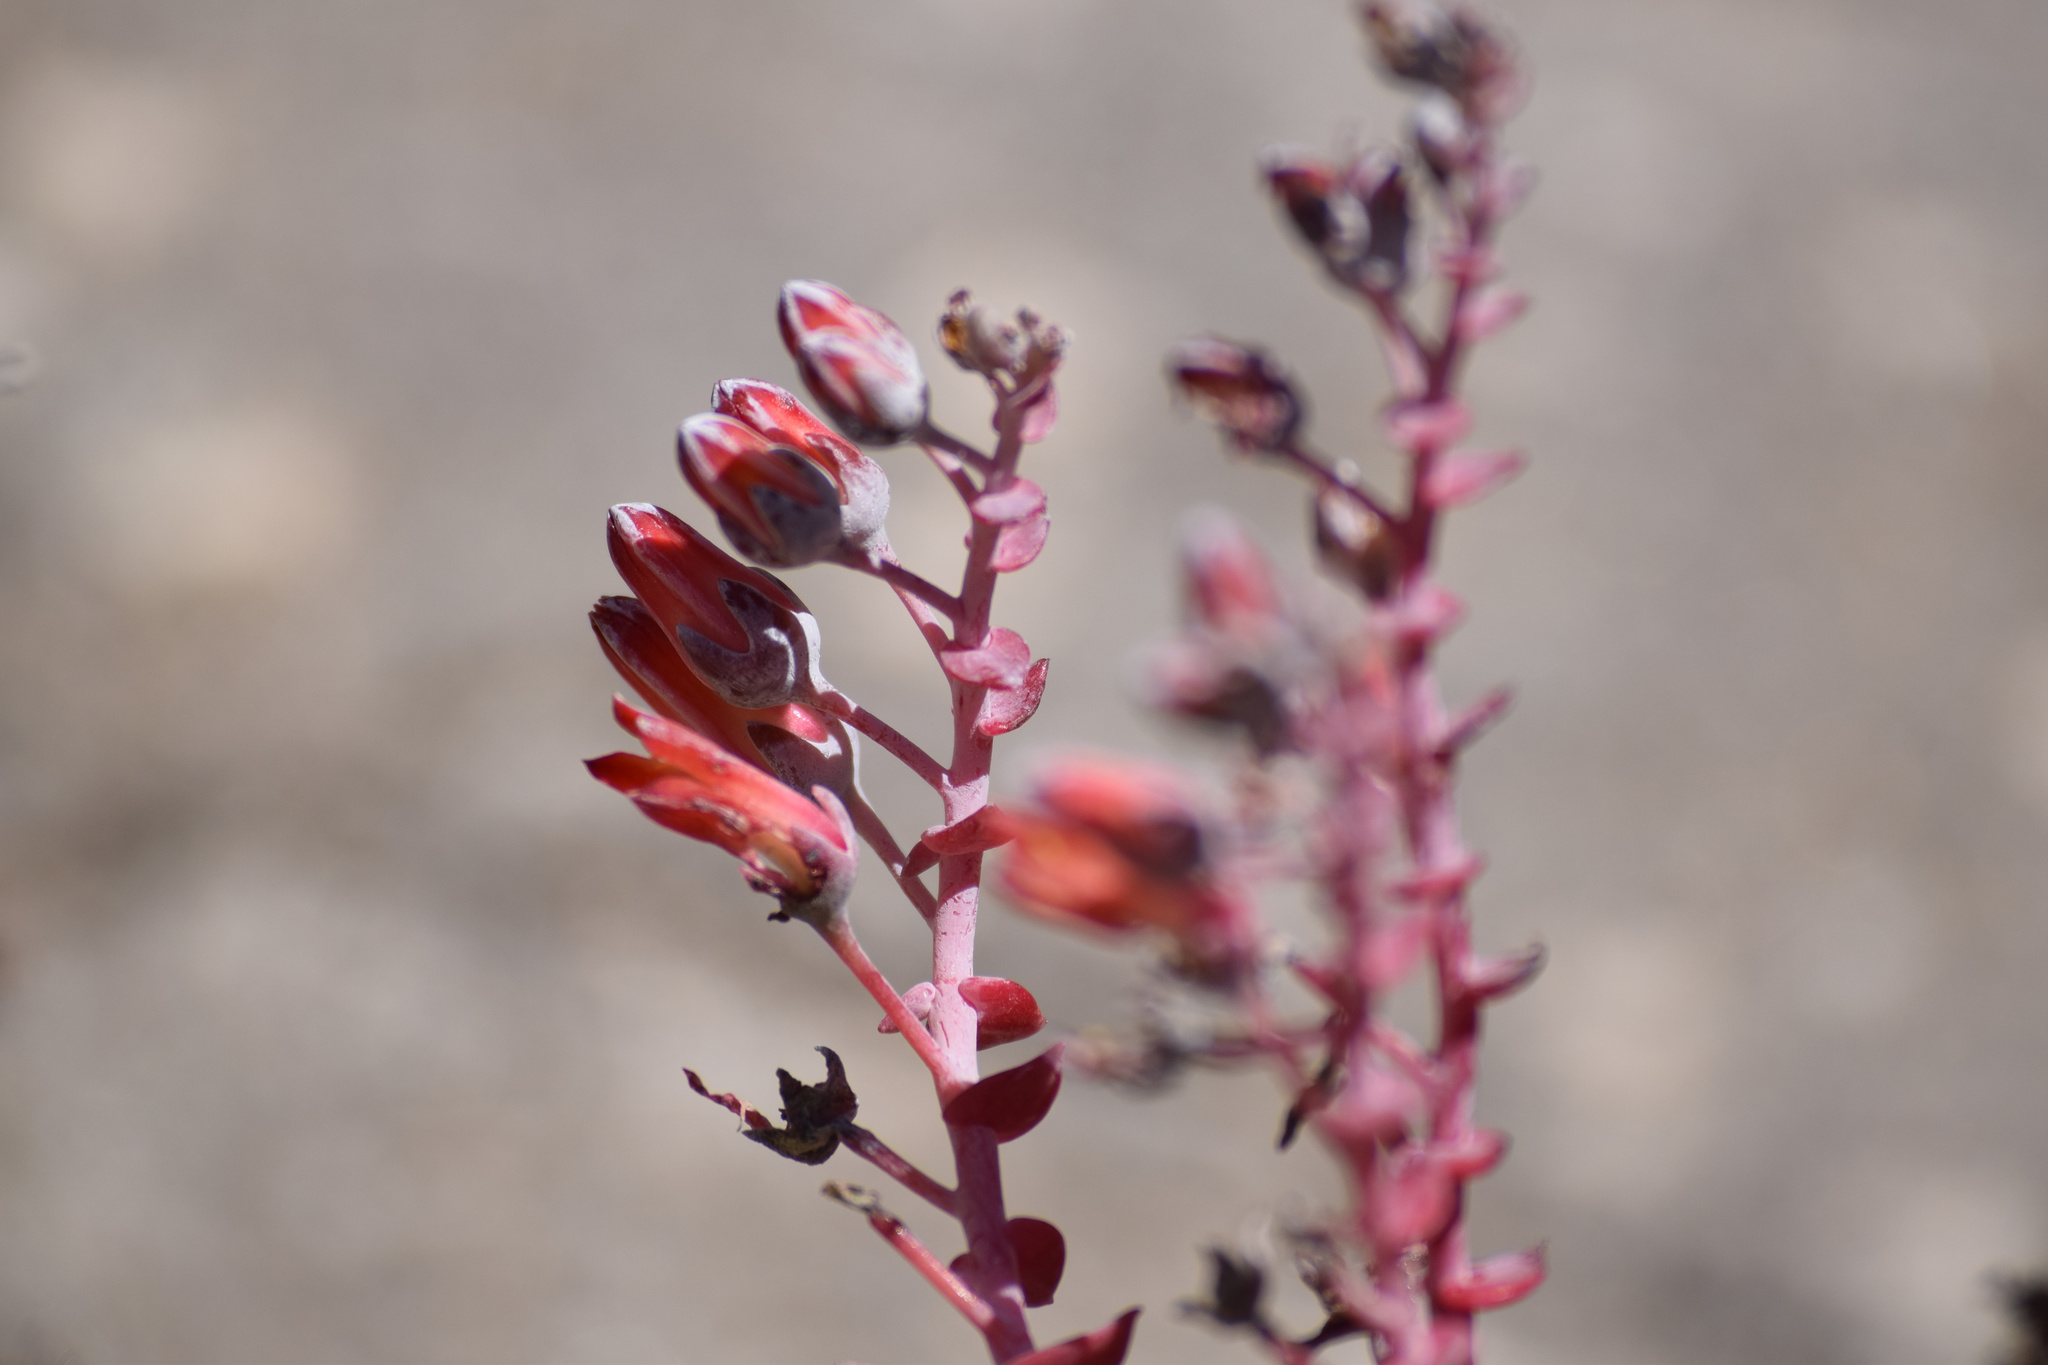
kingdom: Plantae
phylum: Tracheophyta
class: Magnoliopsida
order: Saxifragales
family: Crassulaceae
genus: Dudleya
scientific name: Dudleya arizonica
